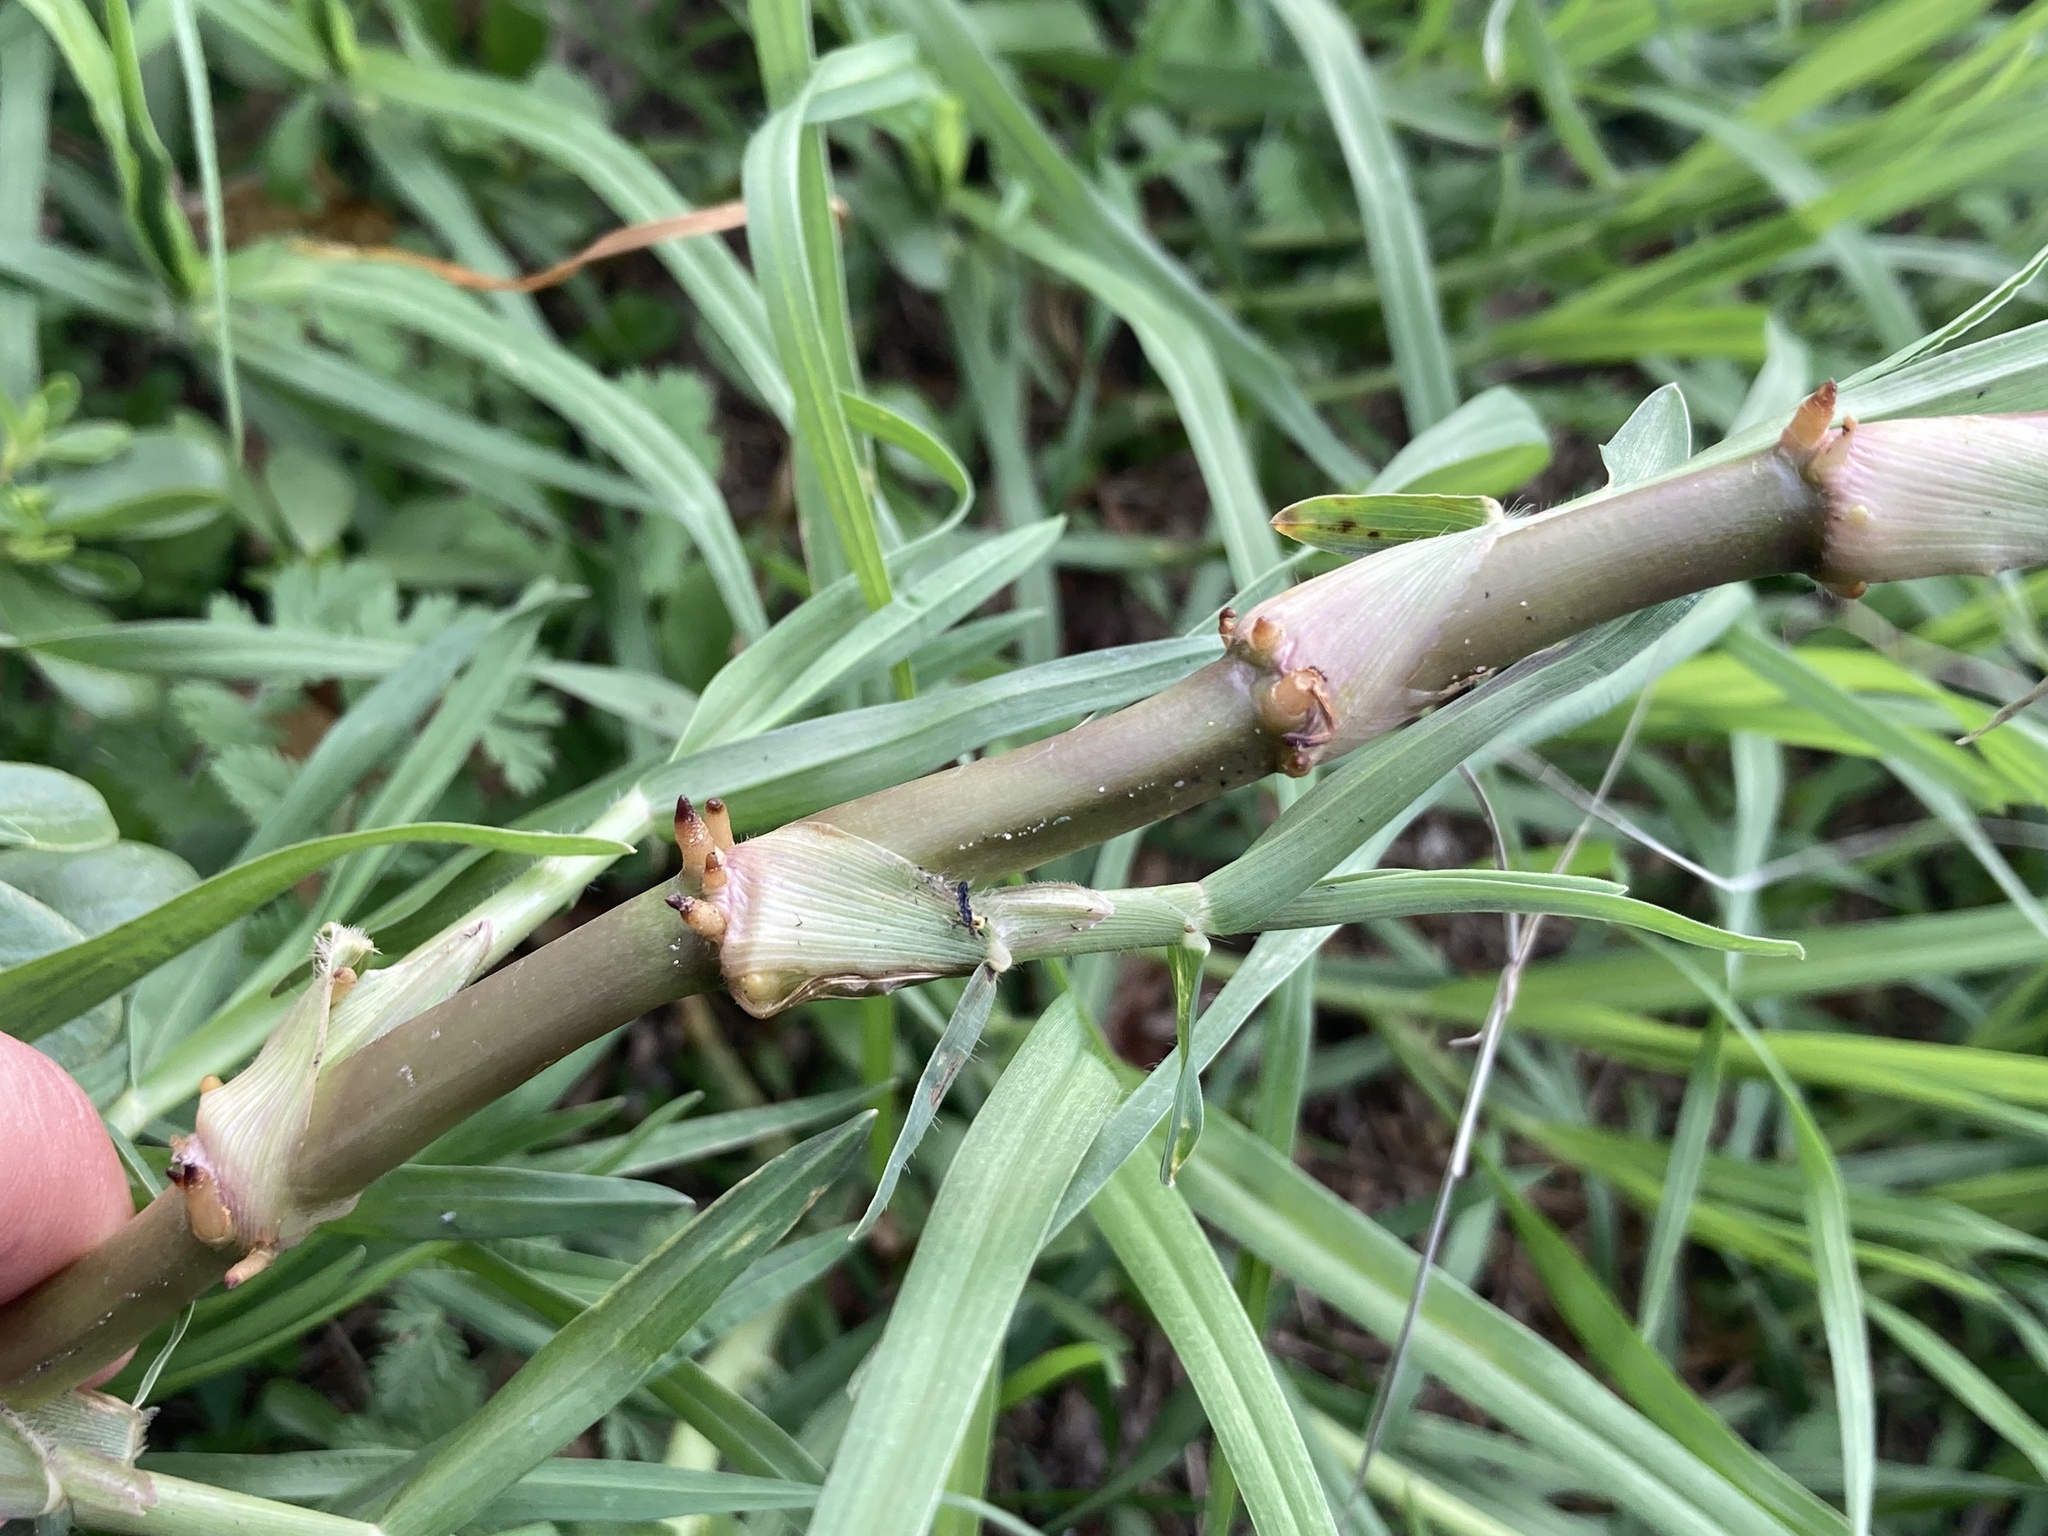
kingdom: Plantae
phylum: Tracheophyta
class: Liliopsida
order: Poales
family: Poaceae
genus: Cenchrus
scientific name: Cenchrus clandestinus
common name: Kikuyugrass
